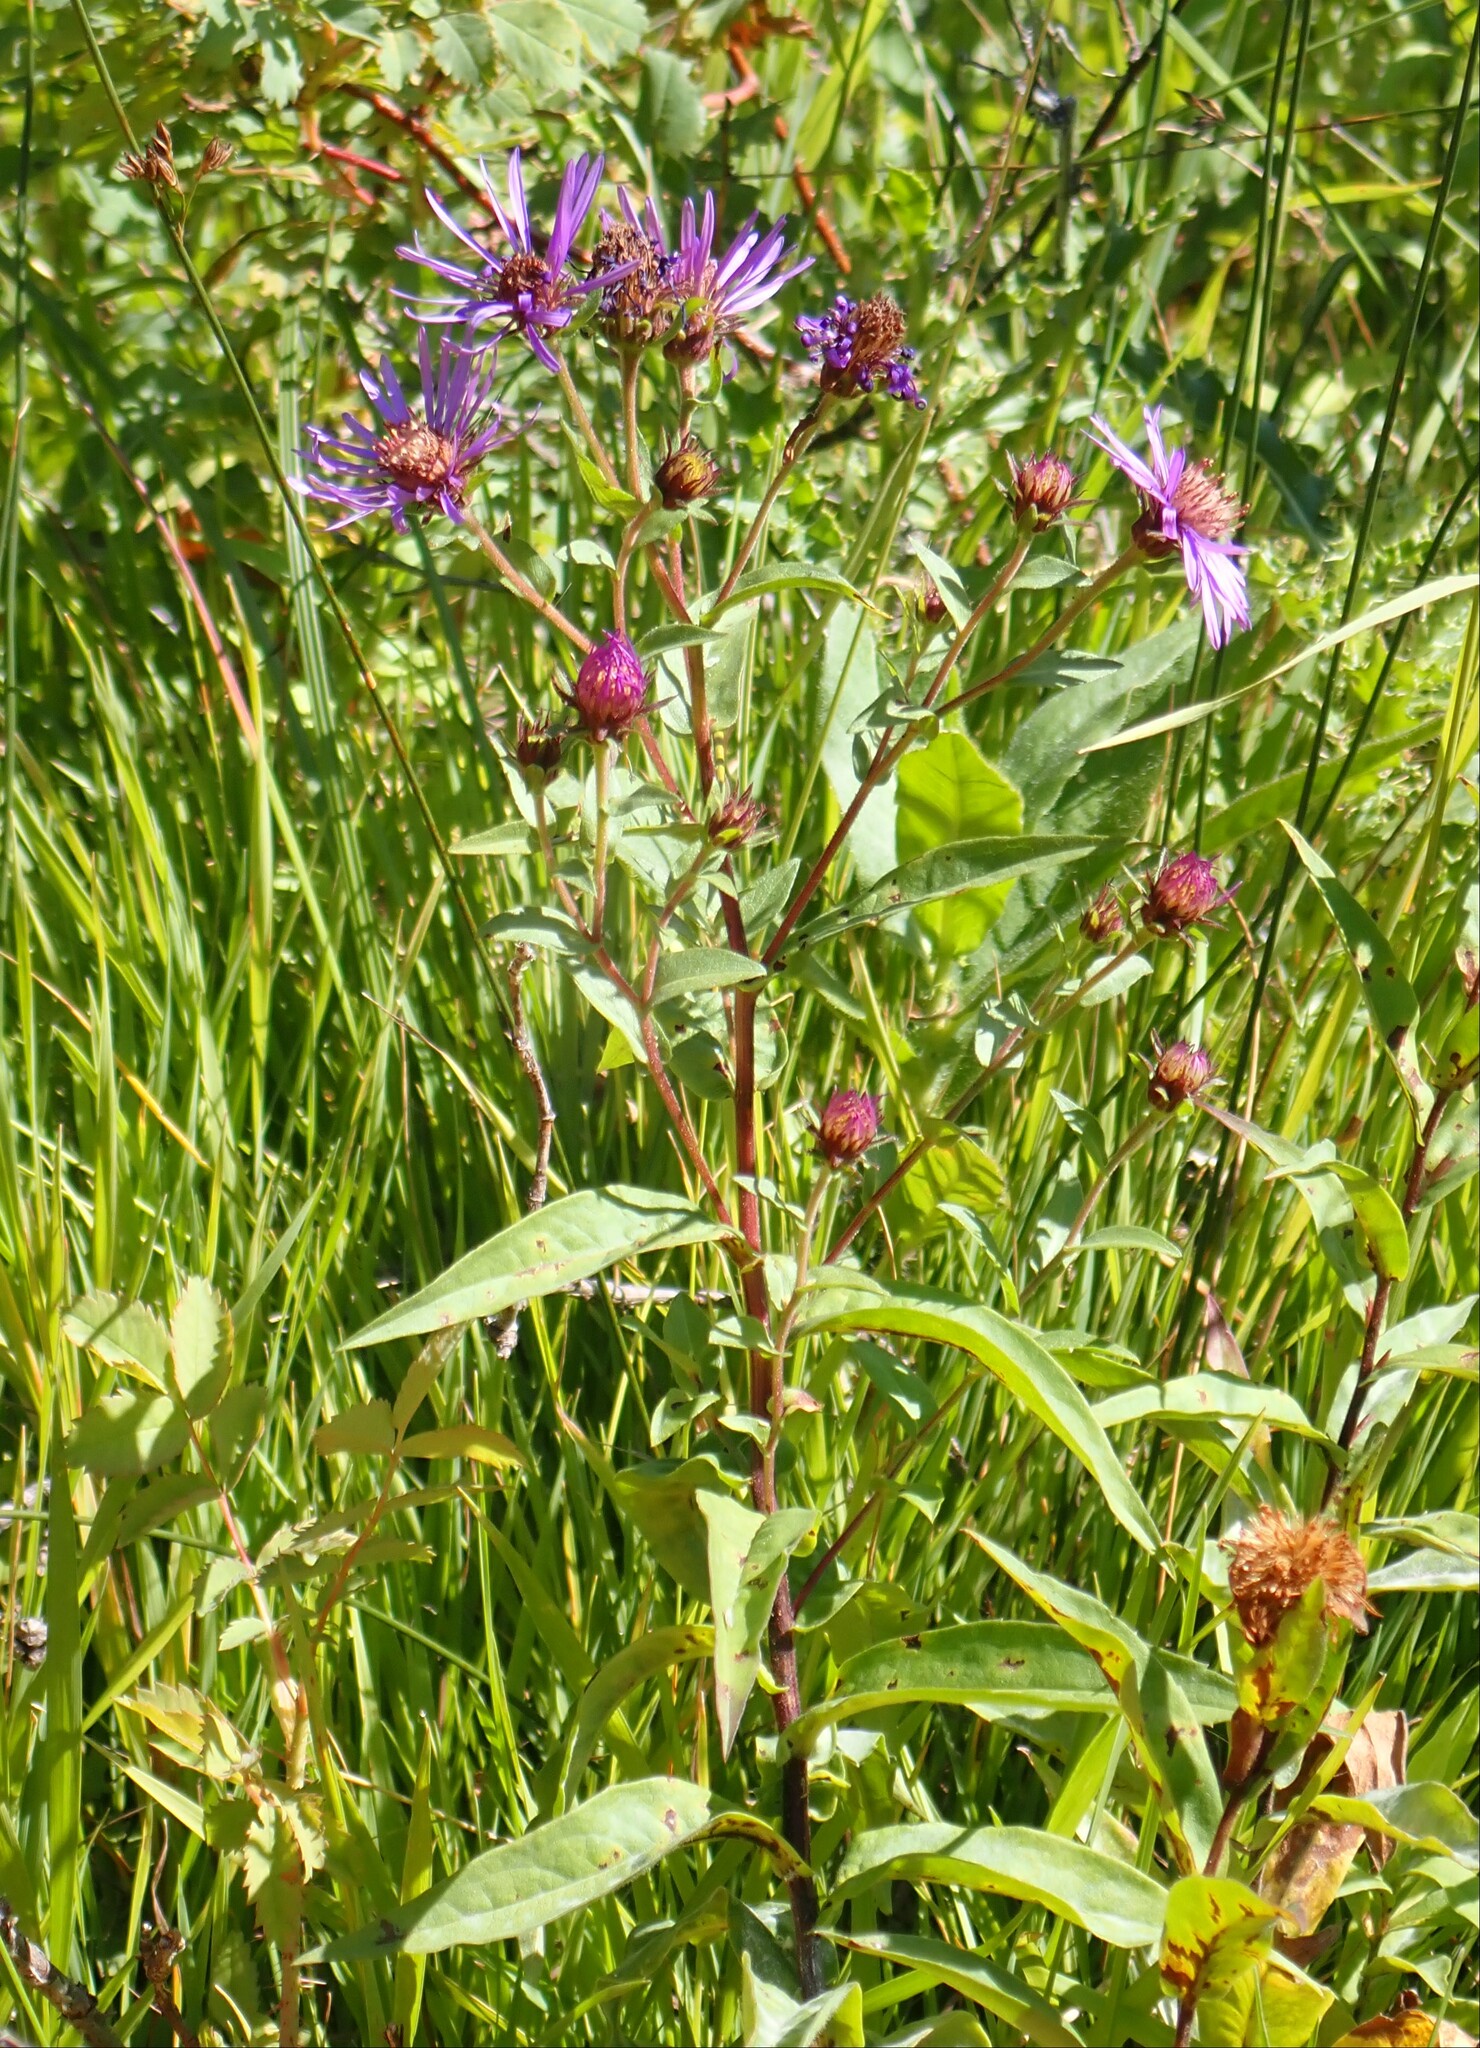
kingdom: Plantae
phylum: Tracheophyta
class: Magnoliopsida
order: Asterales
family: Asteraceae
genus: Canadanthus
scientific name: Canadanthus modestus
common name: Great northern aster
